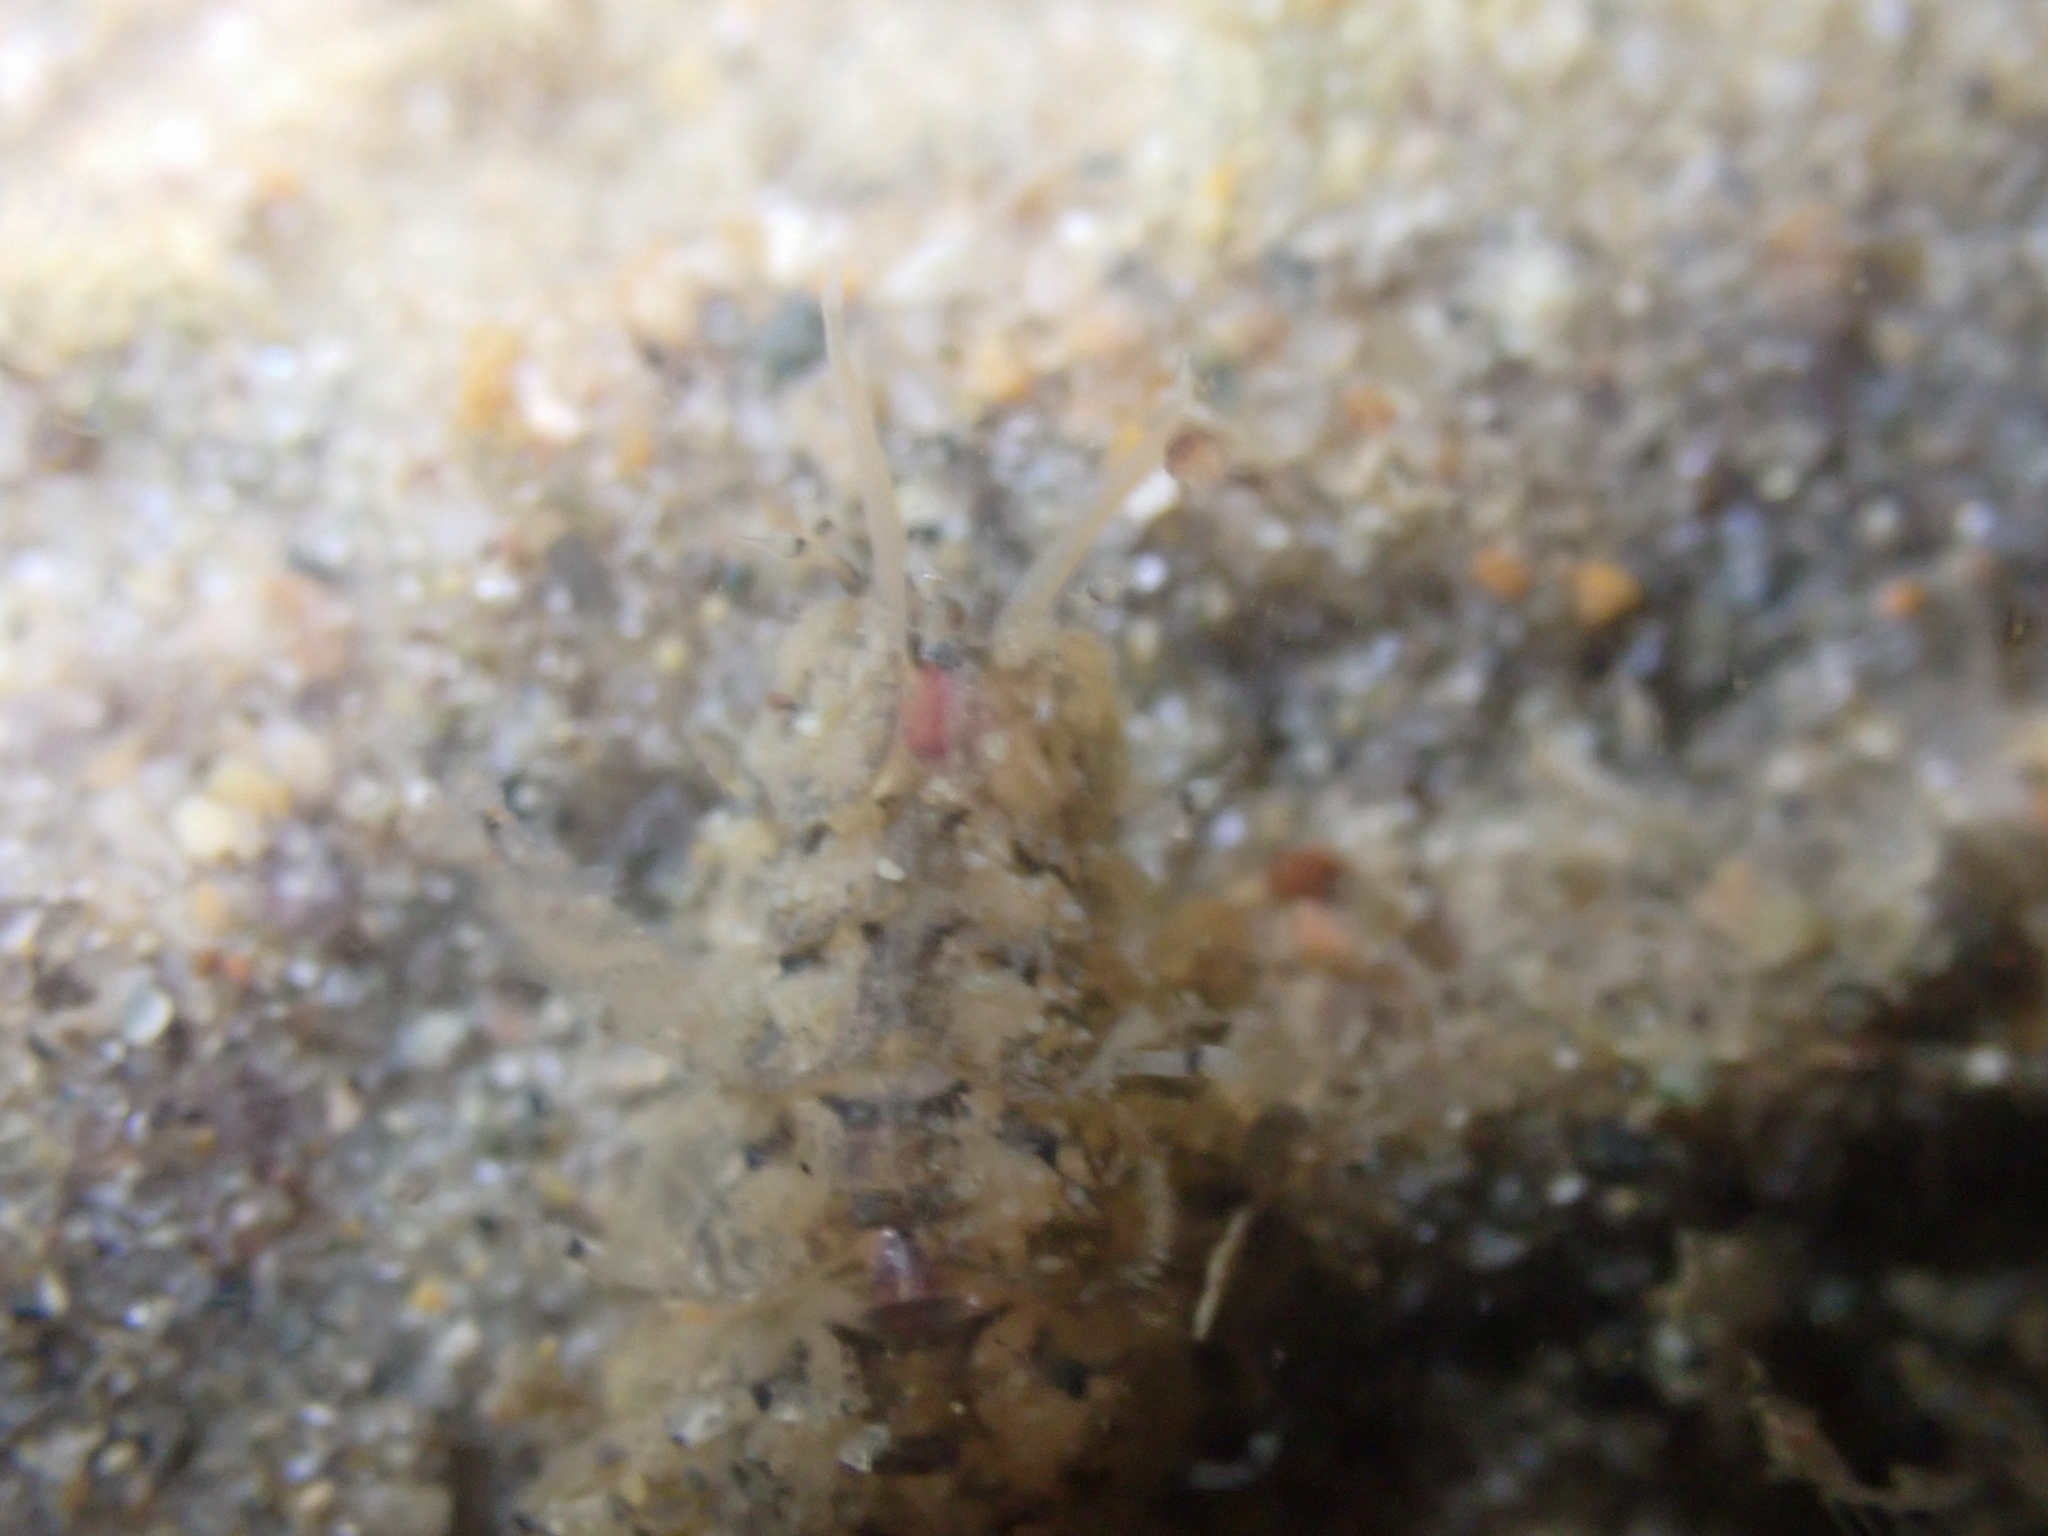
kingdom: Animalia
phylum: Annelida
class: Polychaeta
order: Phyllodocida
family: Polynoidae
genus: Halosydna
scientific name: Halosydna brevisetosa
